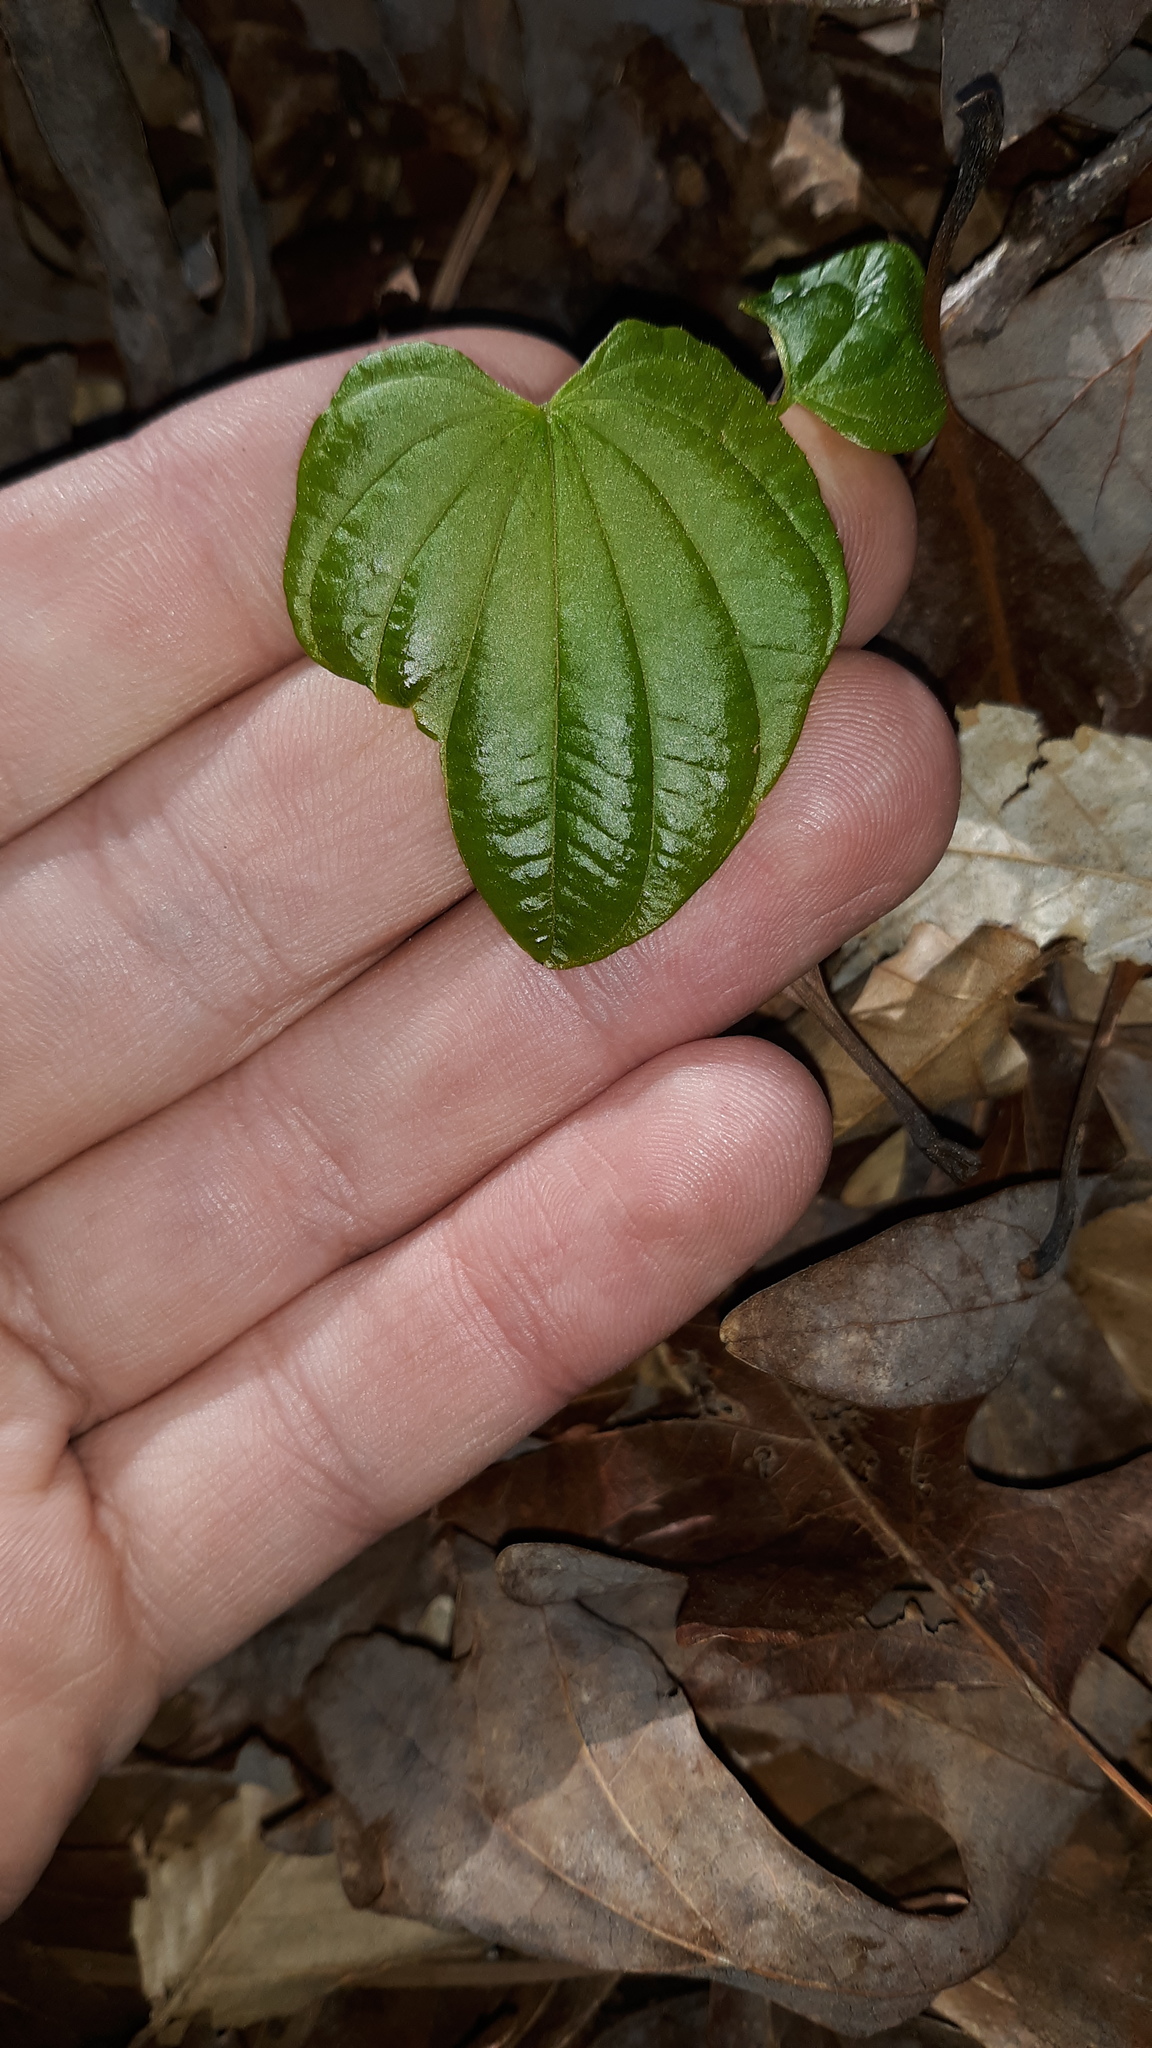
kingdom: Plantae
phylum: Tracheophyta
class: Liliopsida
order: Dioscoreales
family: Dioscoreaceae
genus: Dioscorea
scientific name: Dioscorea villosa
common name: Wild yam
